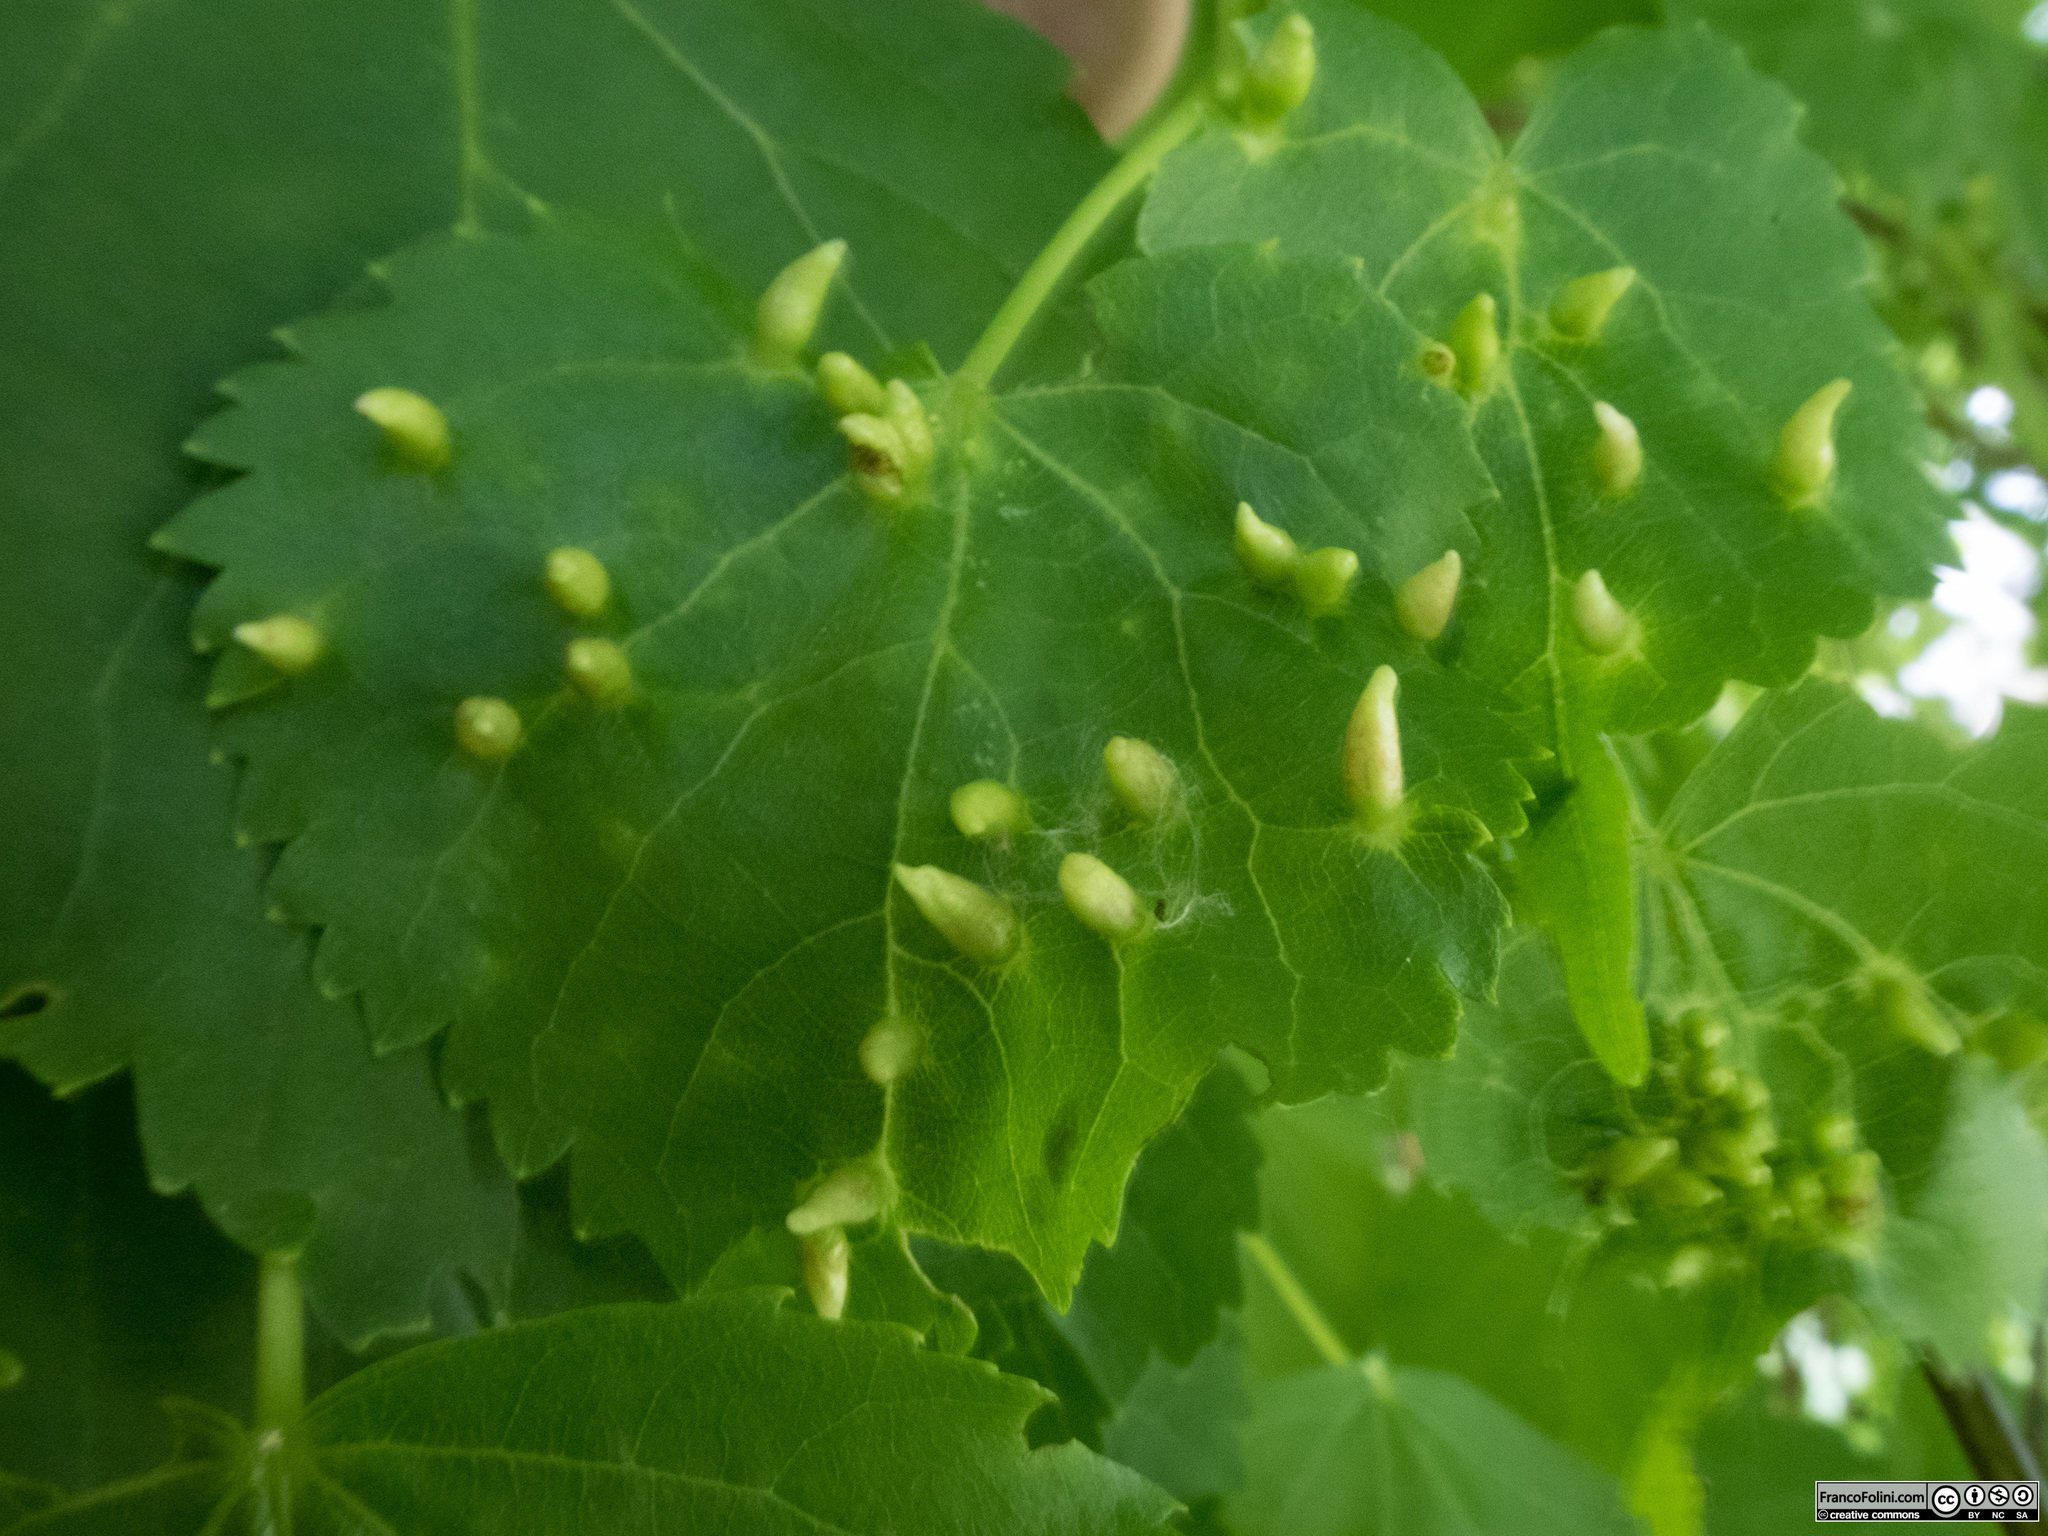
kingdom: Animalia
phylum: Arthropoda
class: Arachnida
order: Trombidiformes
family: Eriophyidae
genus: Eriophyes
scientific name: Eriophyes tiliae
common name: Red nail gall mite
